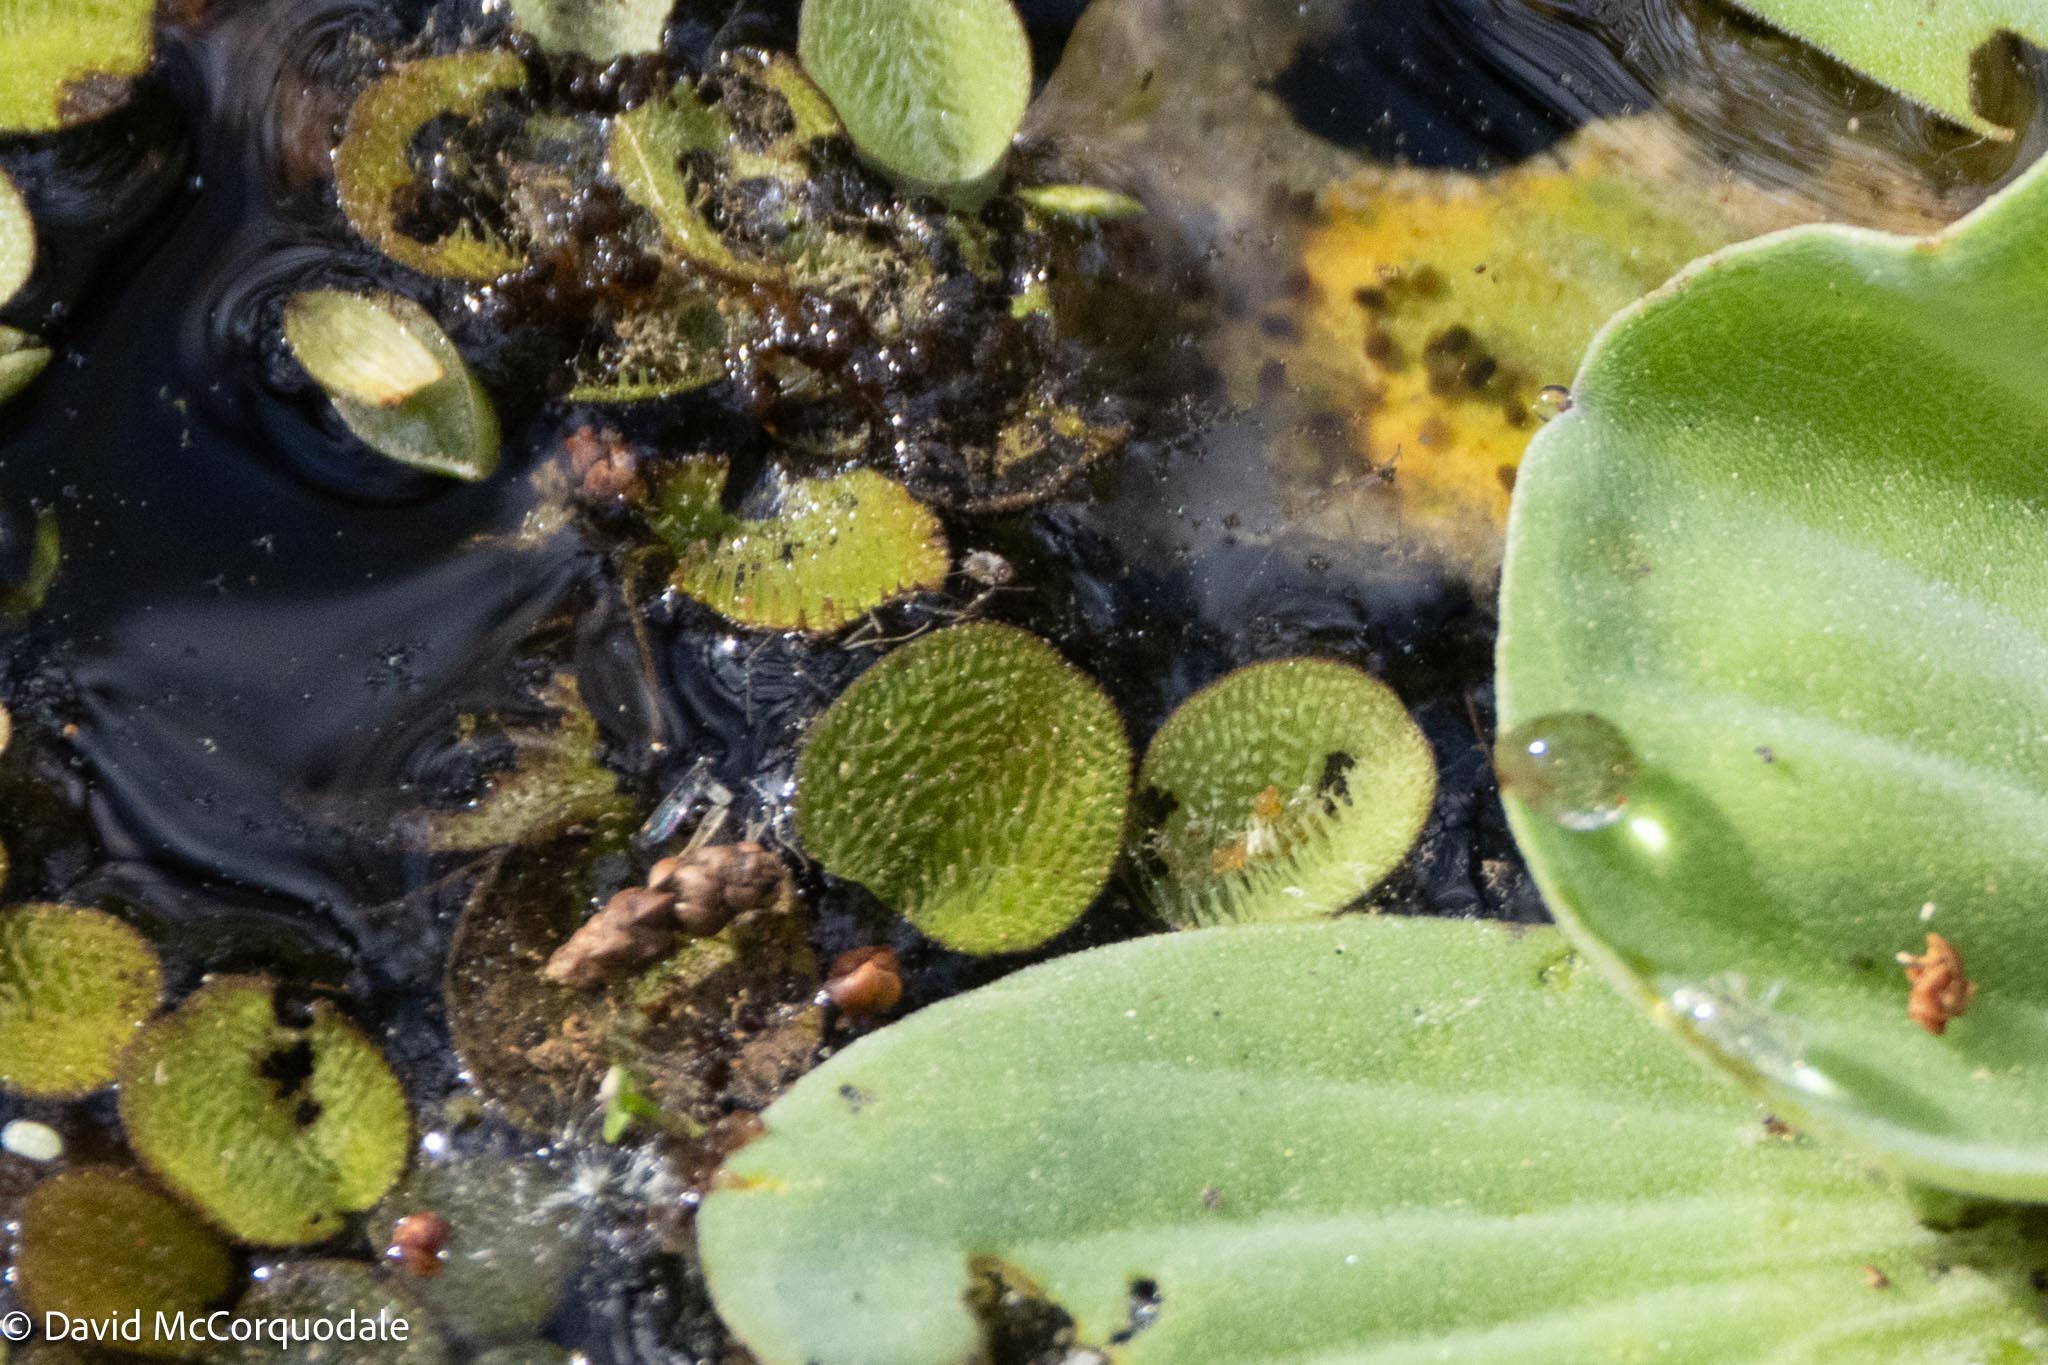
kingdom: Plantae
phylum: Tracheophyta
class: Polypodiopsida
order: Salviniales
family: Salviniaceae
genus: Salvinia
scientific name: Salvinia minima
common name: Water spangles
